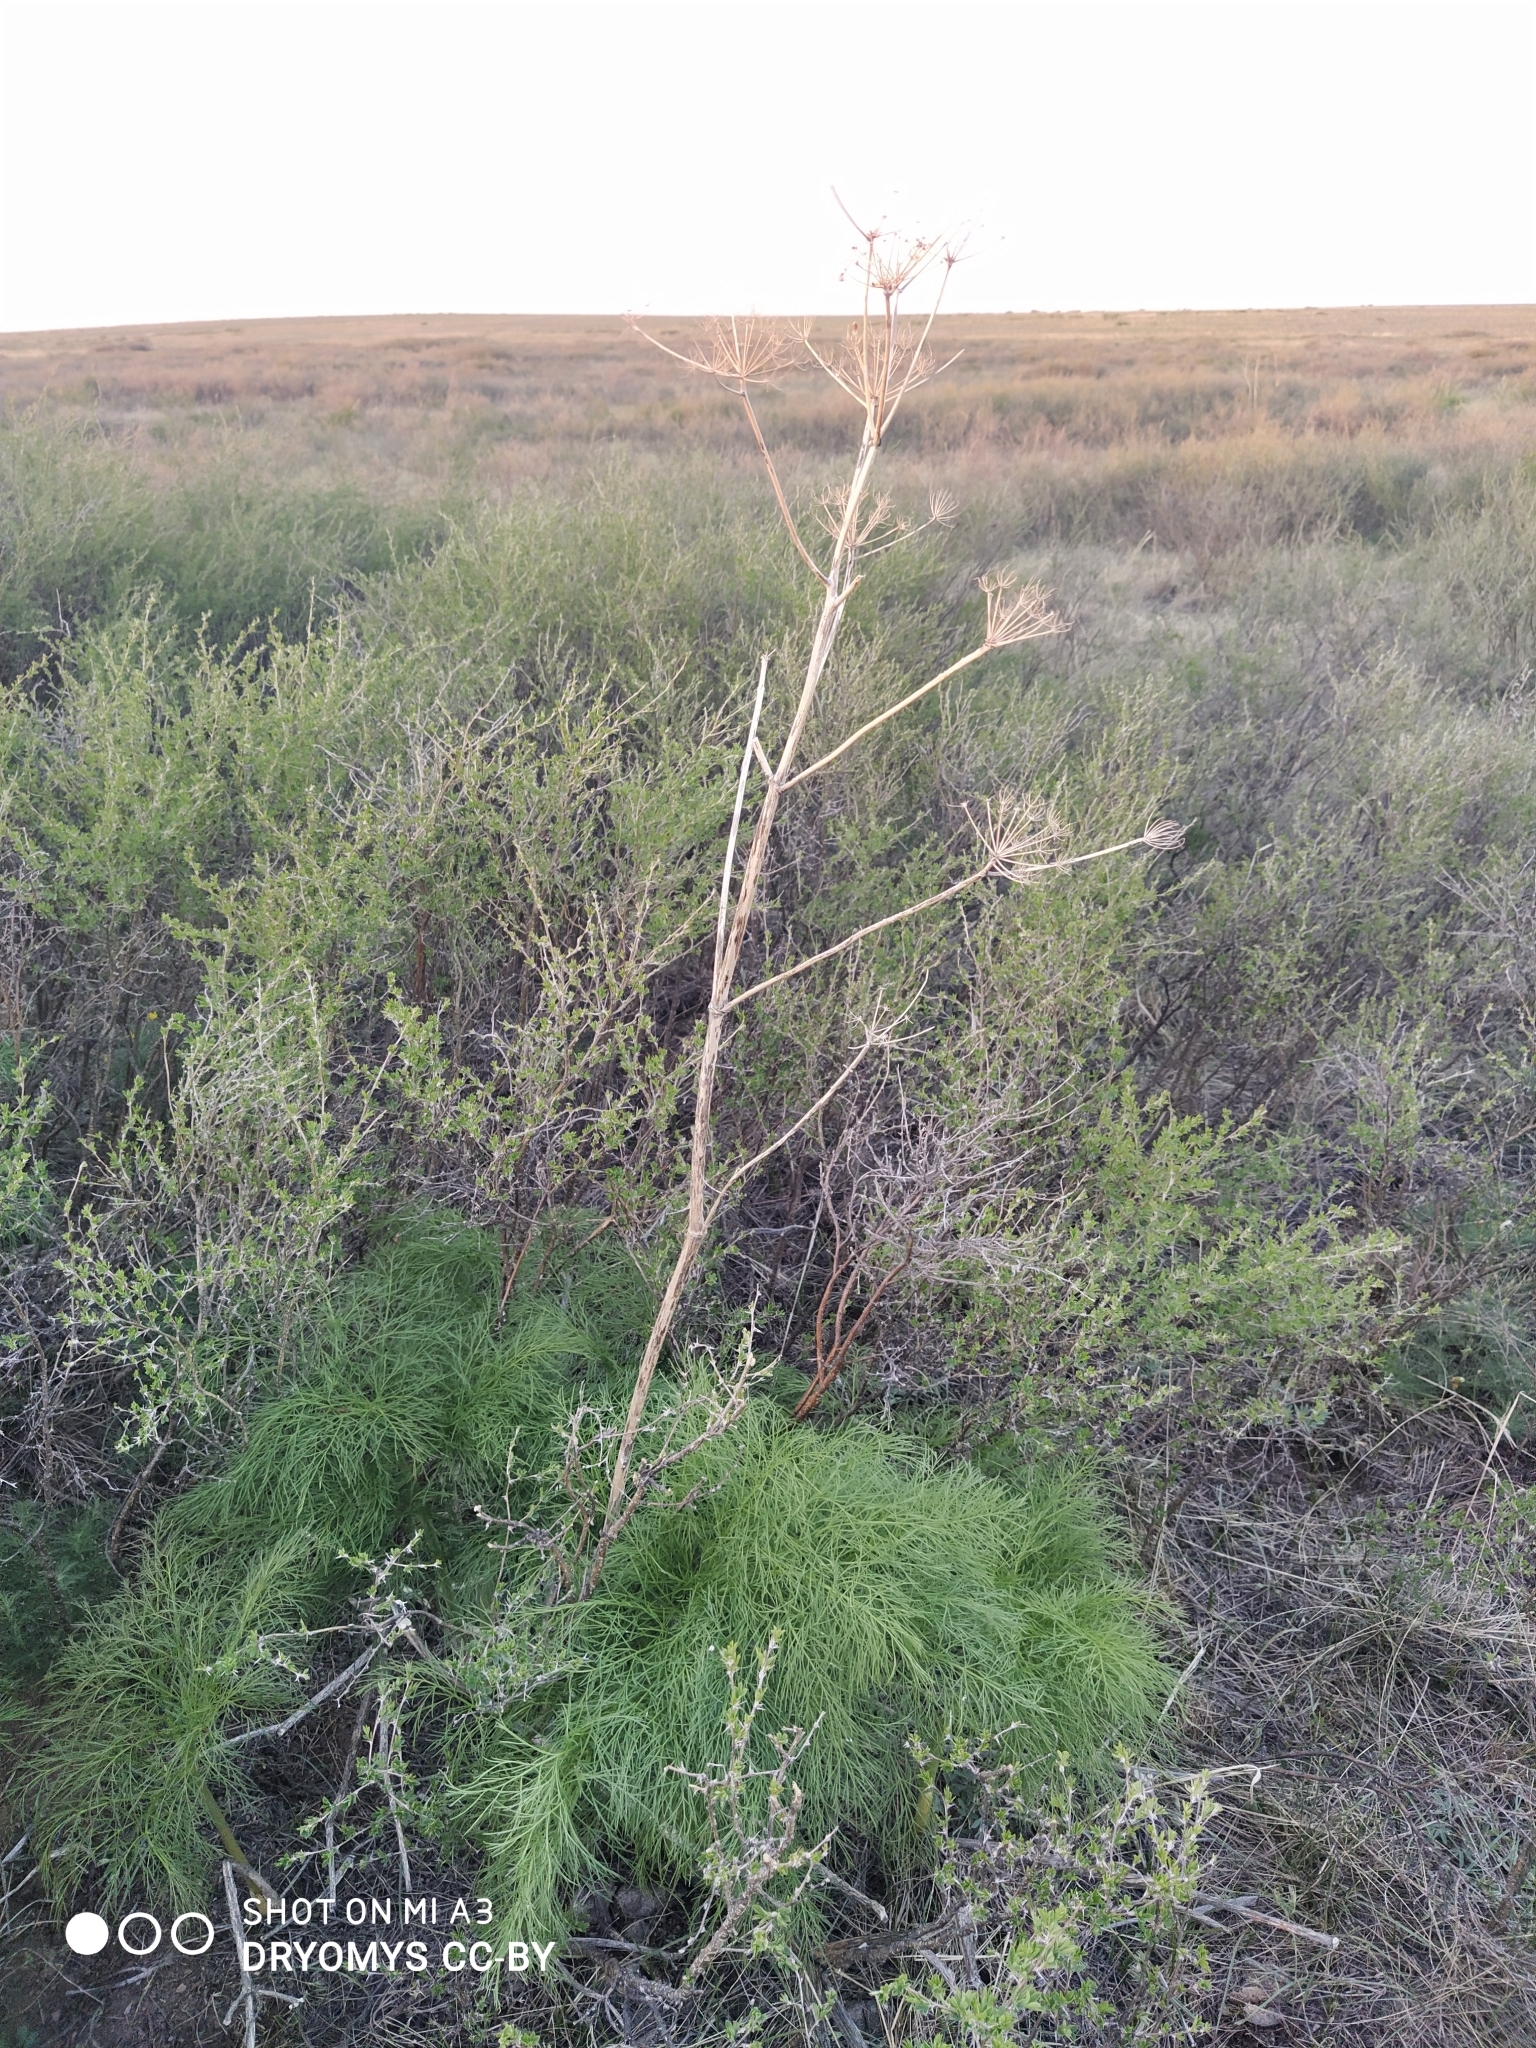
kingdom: Plantae
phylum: Tracheophyta
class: Magnoliopsida
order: Apiales
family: Apiaceae
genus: Ferula
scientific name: Ferula songarica
